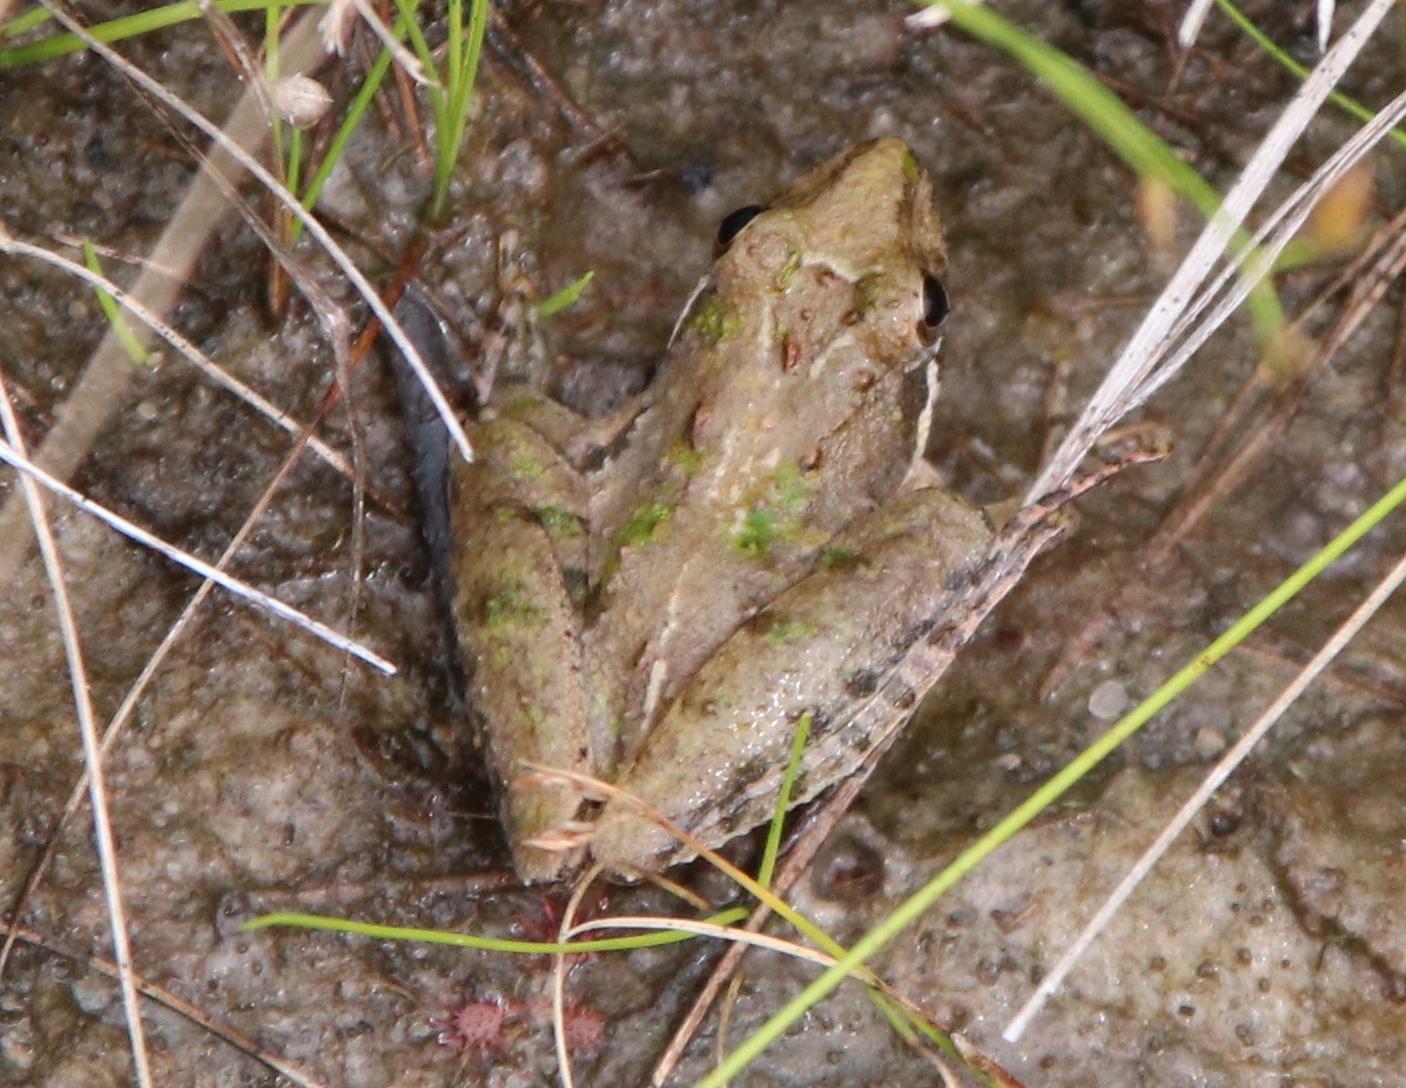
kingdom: Animalia
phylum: Chordata
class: Amphibia
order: Anura
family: Hylidae
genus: Acris
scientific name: Acris gryllus
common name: Southern cricket frog
